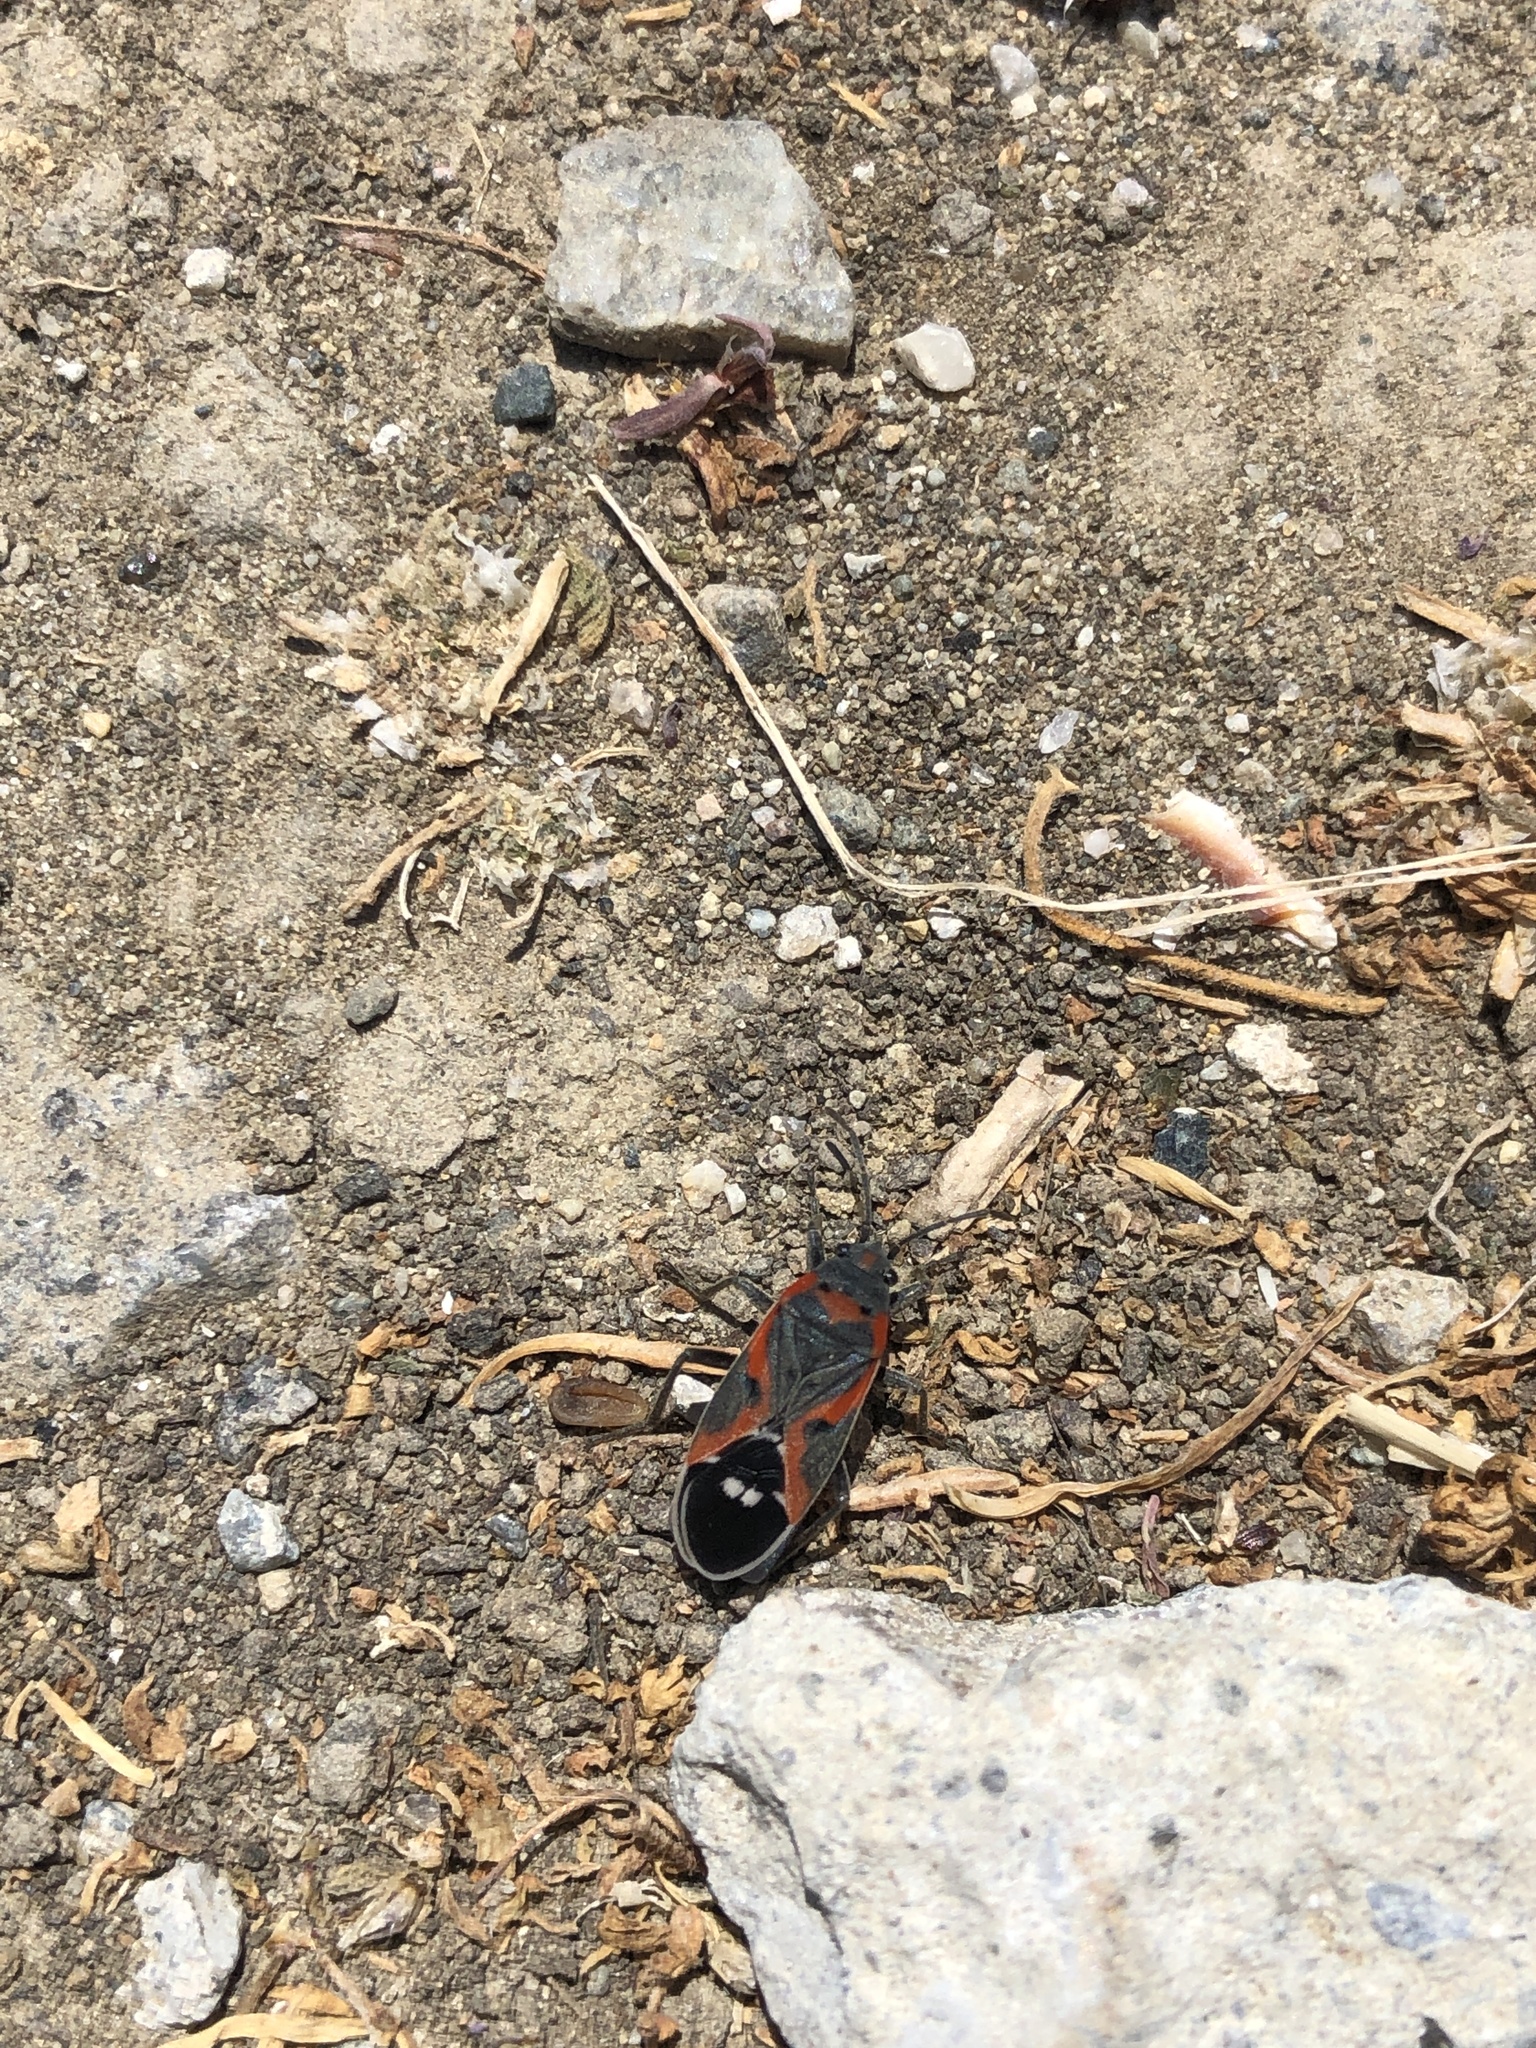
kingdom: Animalia
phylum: Arthropoda
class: Insecta
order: Hemiptera
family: Lygaeidae
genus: Lygaeus
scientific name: Lygaeus kalmii
